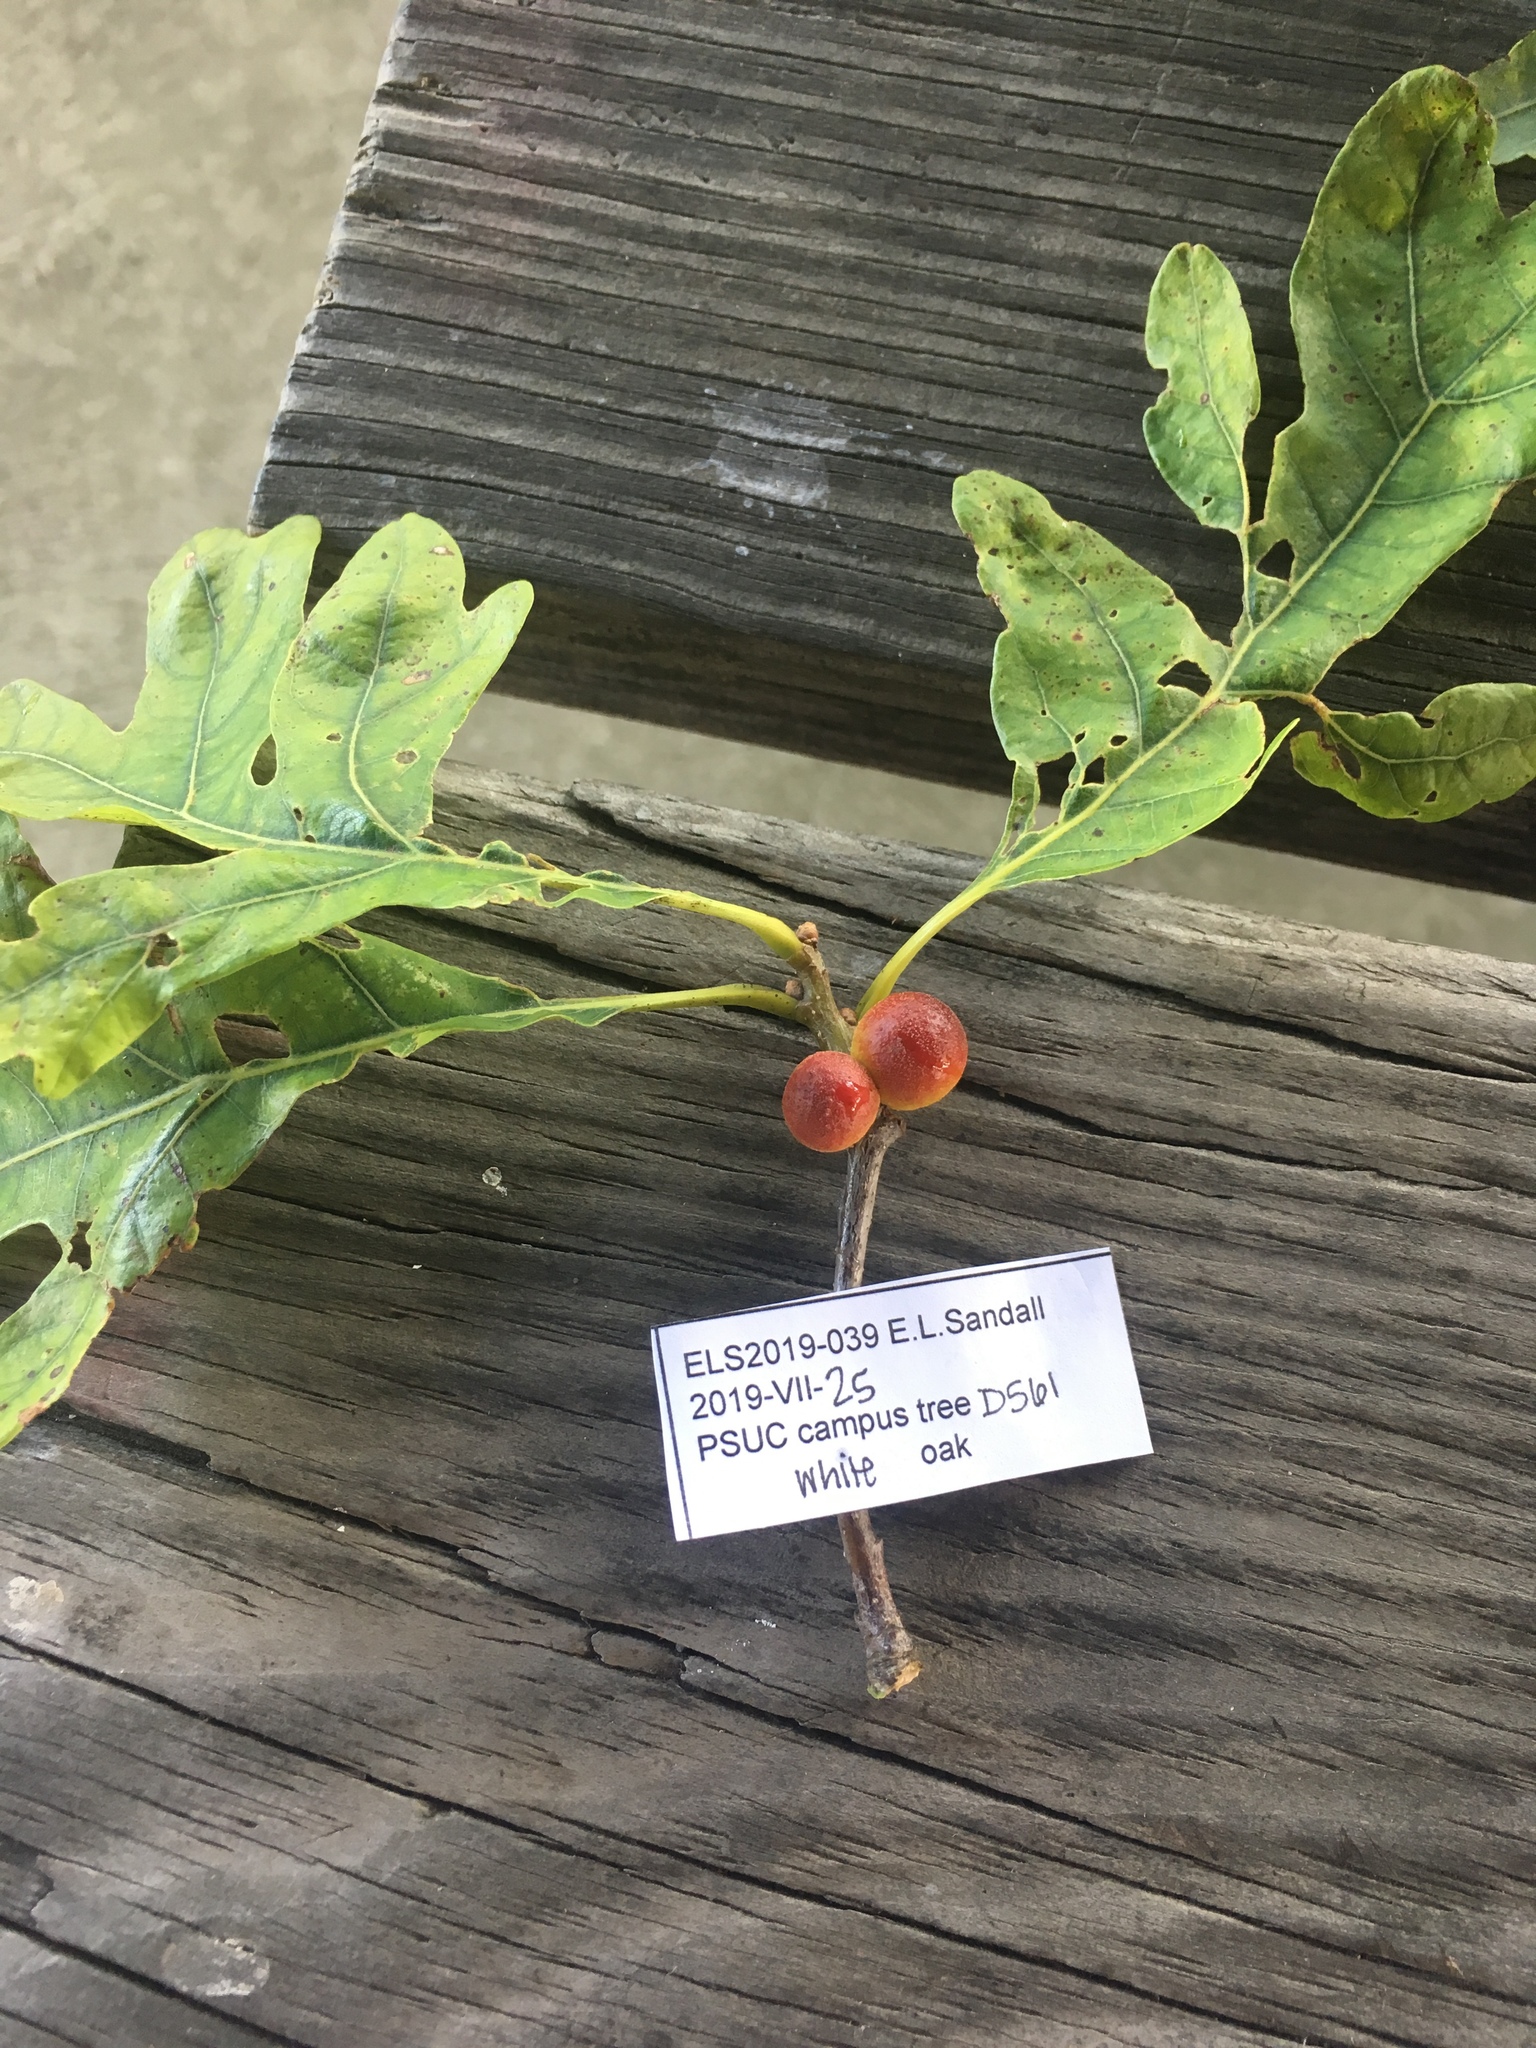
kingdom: Animalia
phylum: Arthropoda
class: Insecta
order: Hymenoptera
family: Cynipidae
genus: Disholcaspis
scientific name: Disholcaspis quercusglobulus
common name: Round bullet gall wasp
